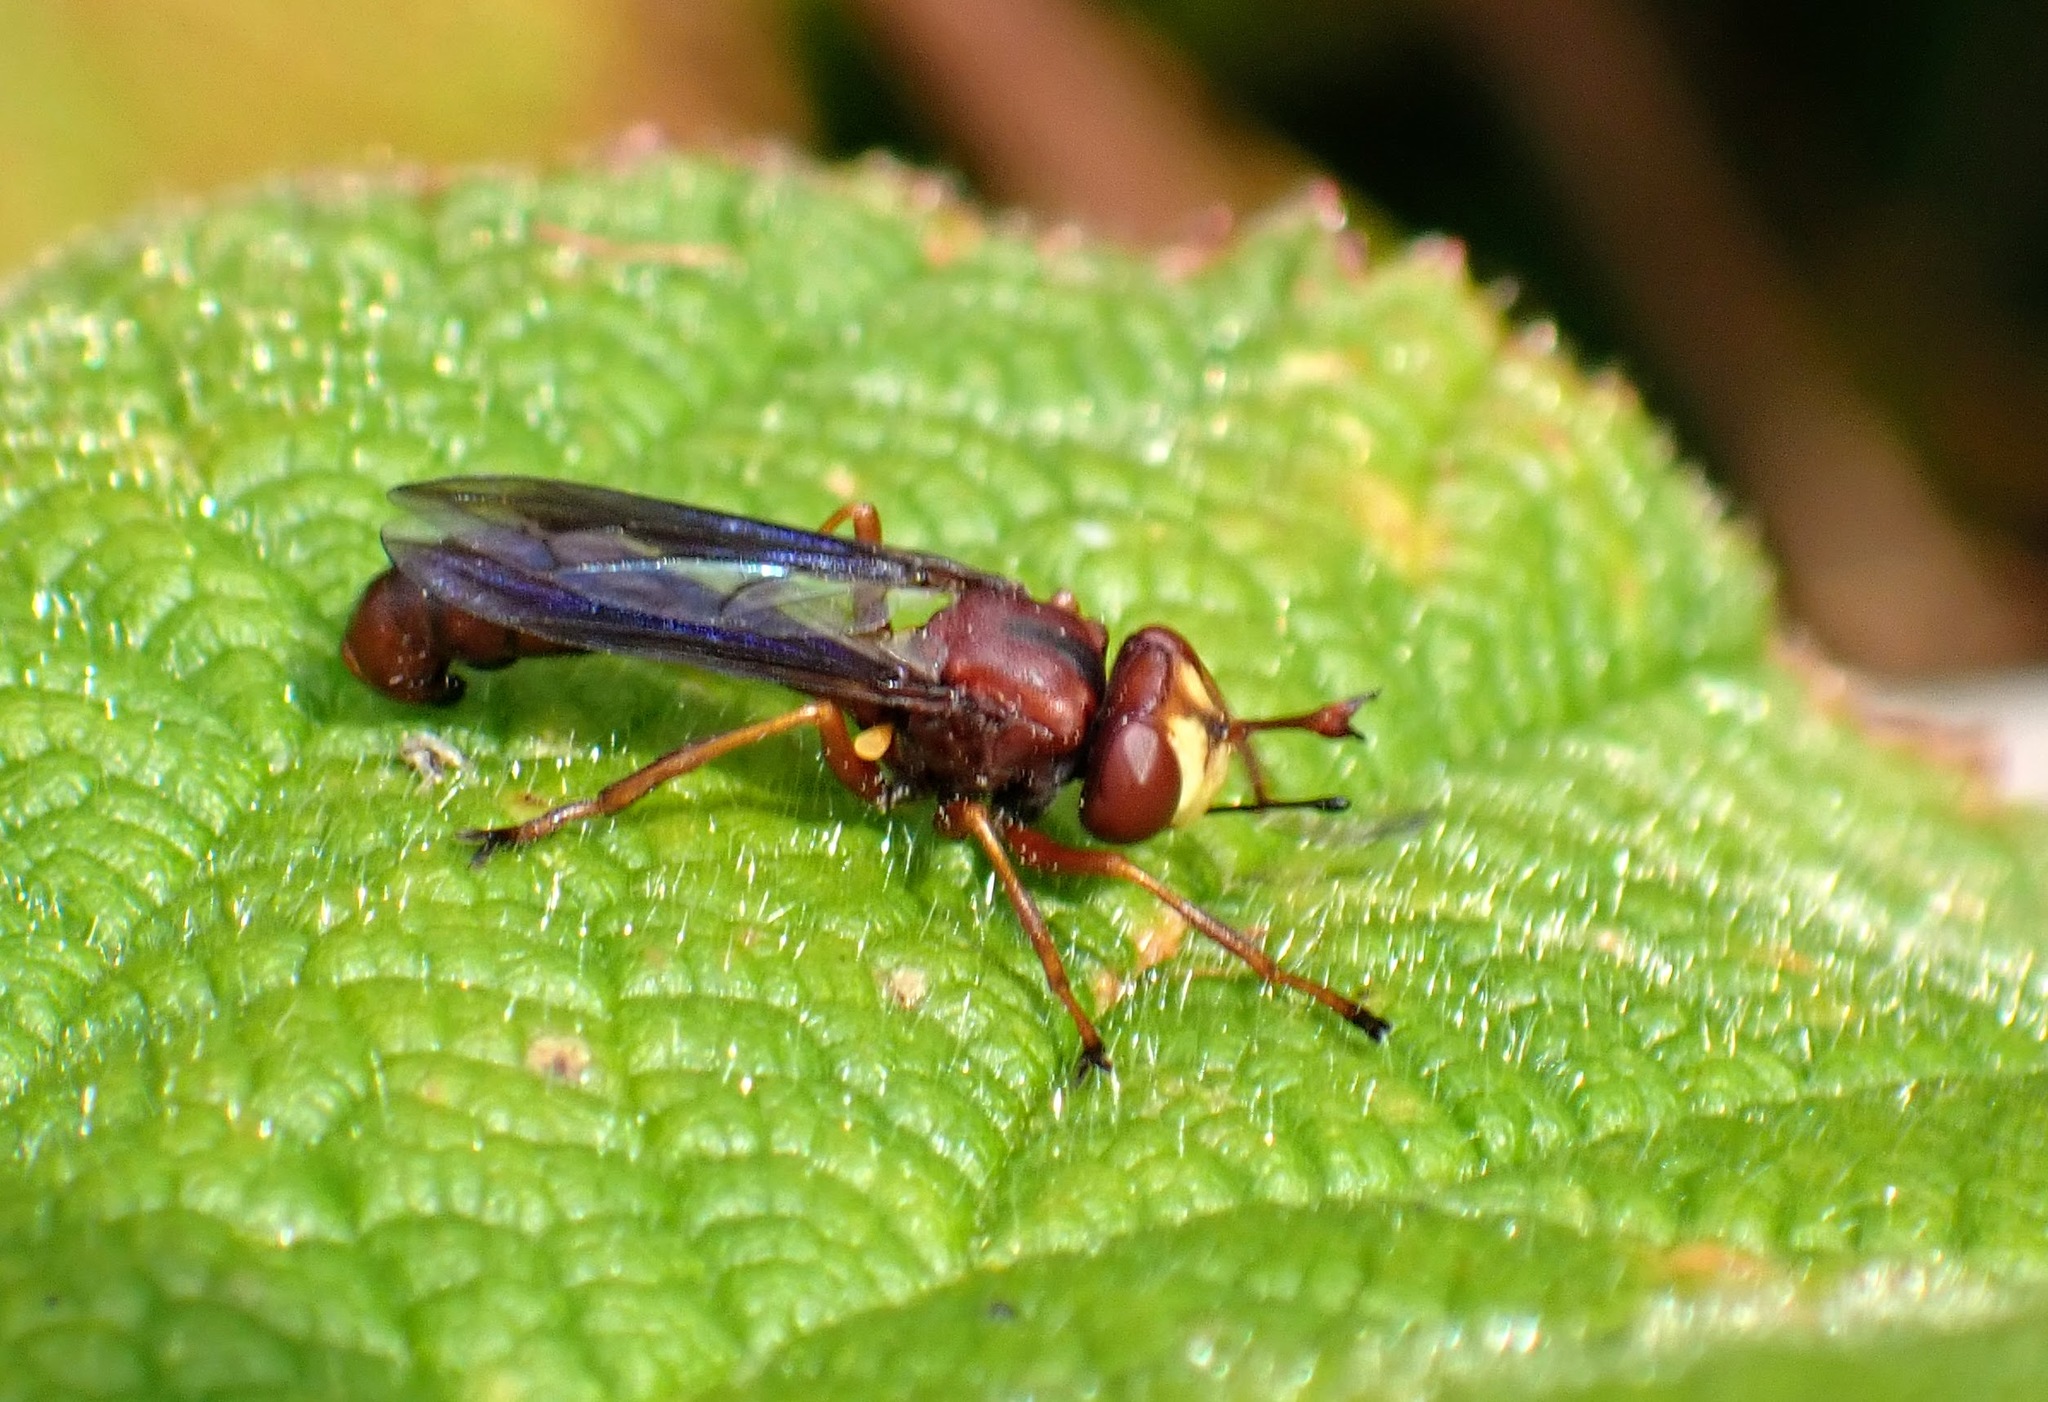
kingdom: Animalia
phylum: Arthropoda
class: Insecta
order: Diptera
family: Conopidae
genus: Physocephala
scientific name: Physocephala burgessi
